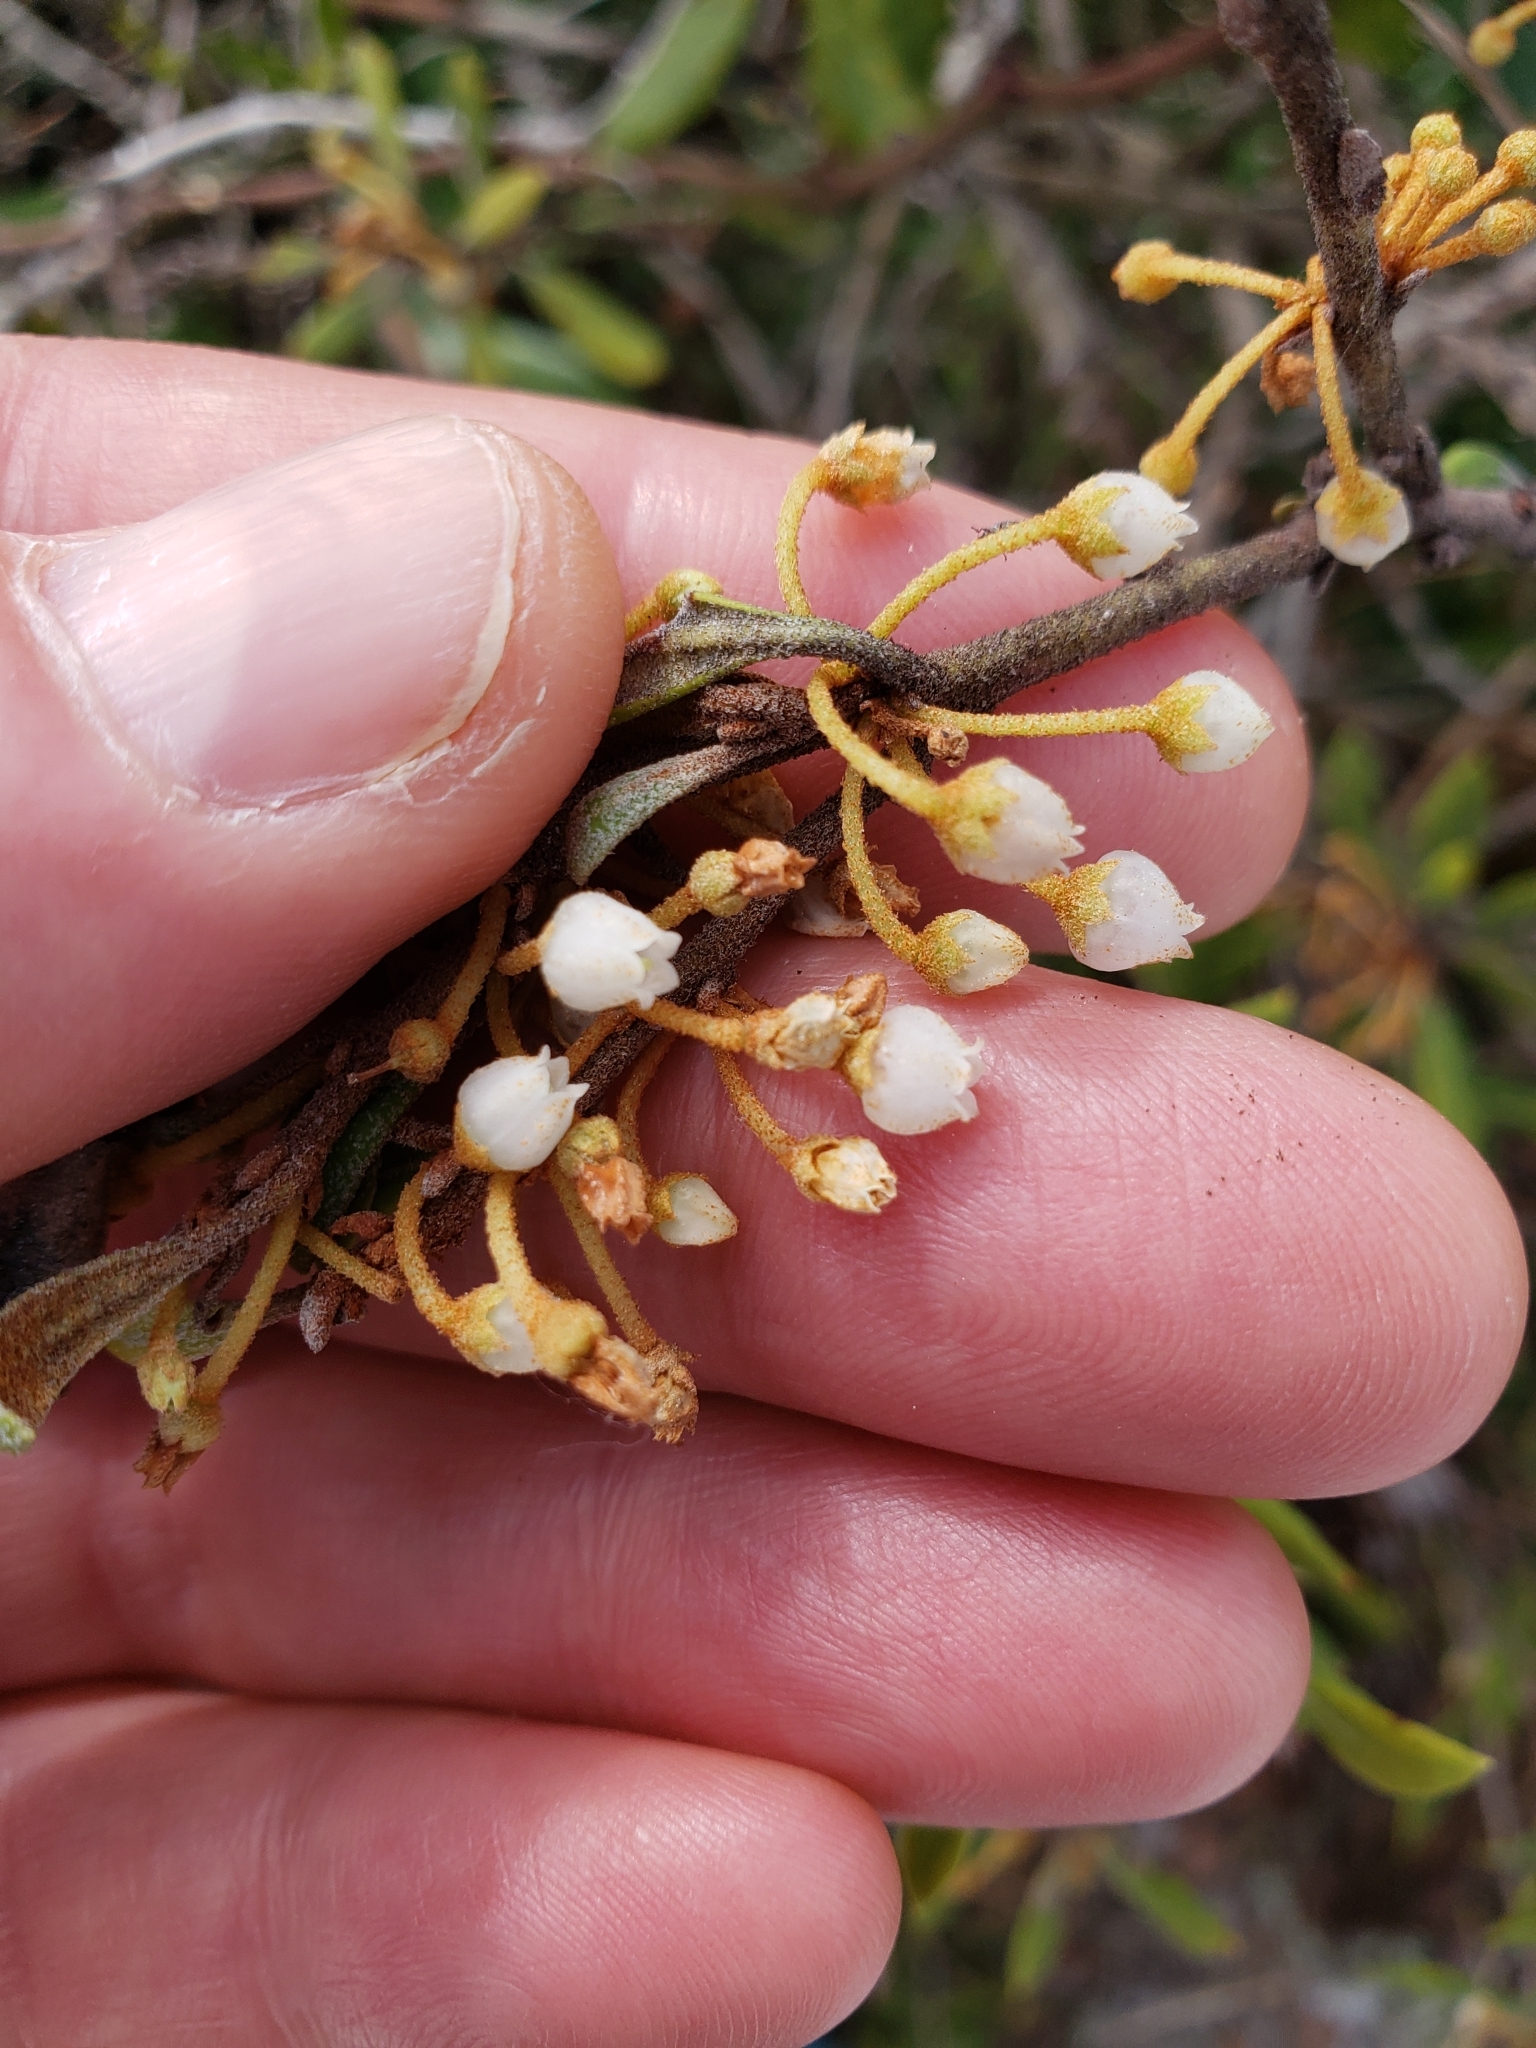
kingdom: Plantae
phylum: Tracheophyta
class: Magnoliopsida
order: Ericales
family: Ericaceae
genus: Lyonia
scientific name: Lyonia ferruginea
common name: Rusty lyonia
